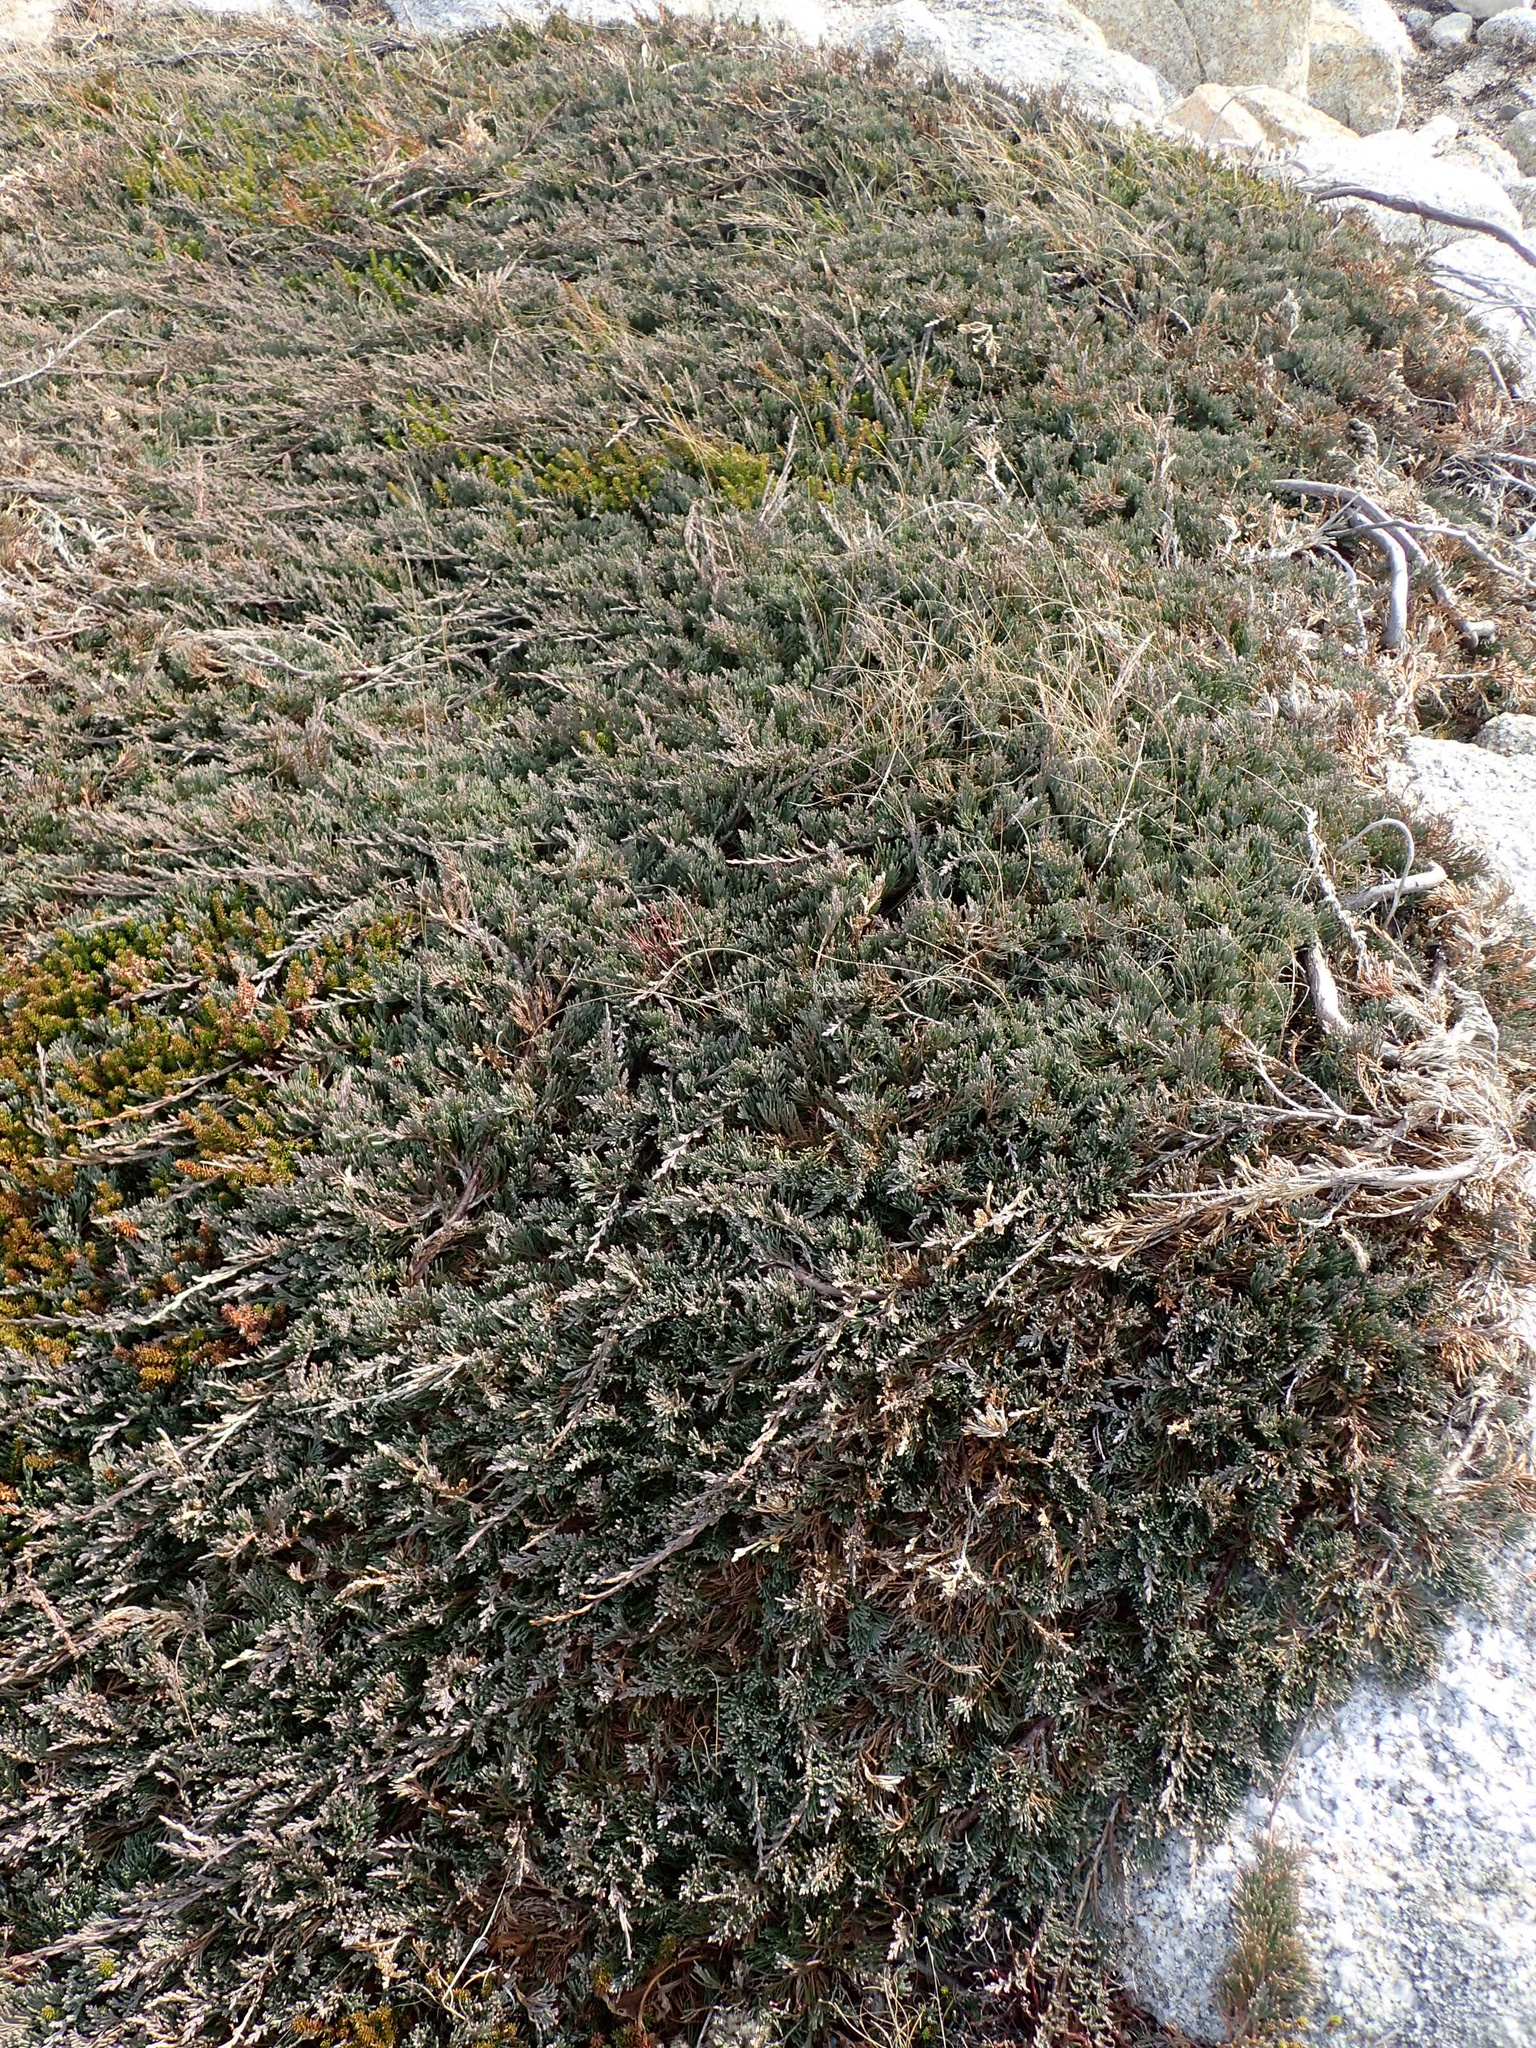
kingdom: Plantae
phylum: Tracheophyta
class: Pinopsida
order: Pinales
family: Cupressaceae
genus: Juniperus
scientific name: Juniperus horizontalis
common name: Creeping juniper
